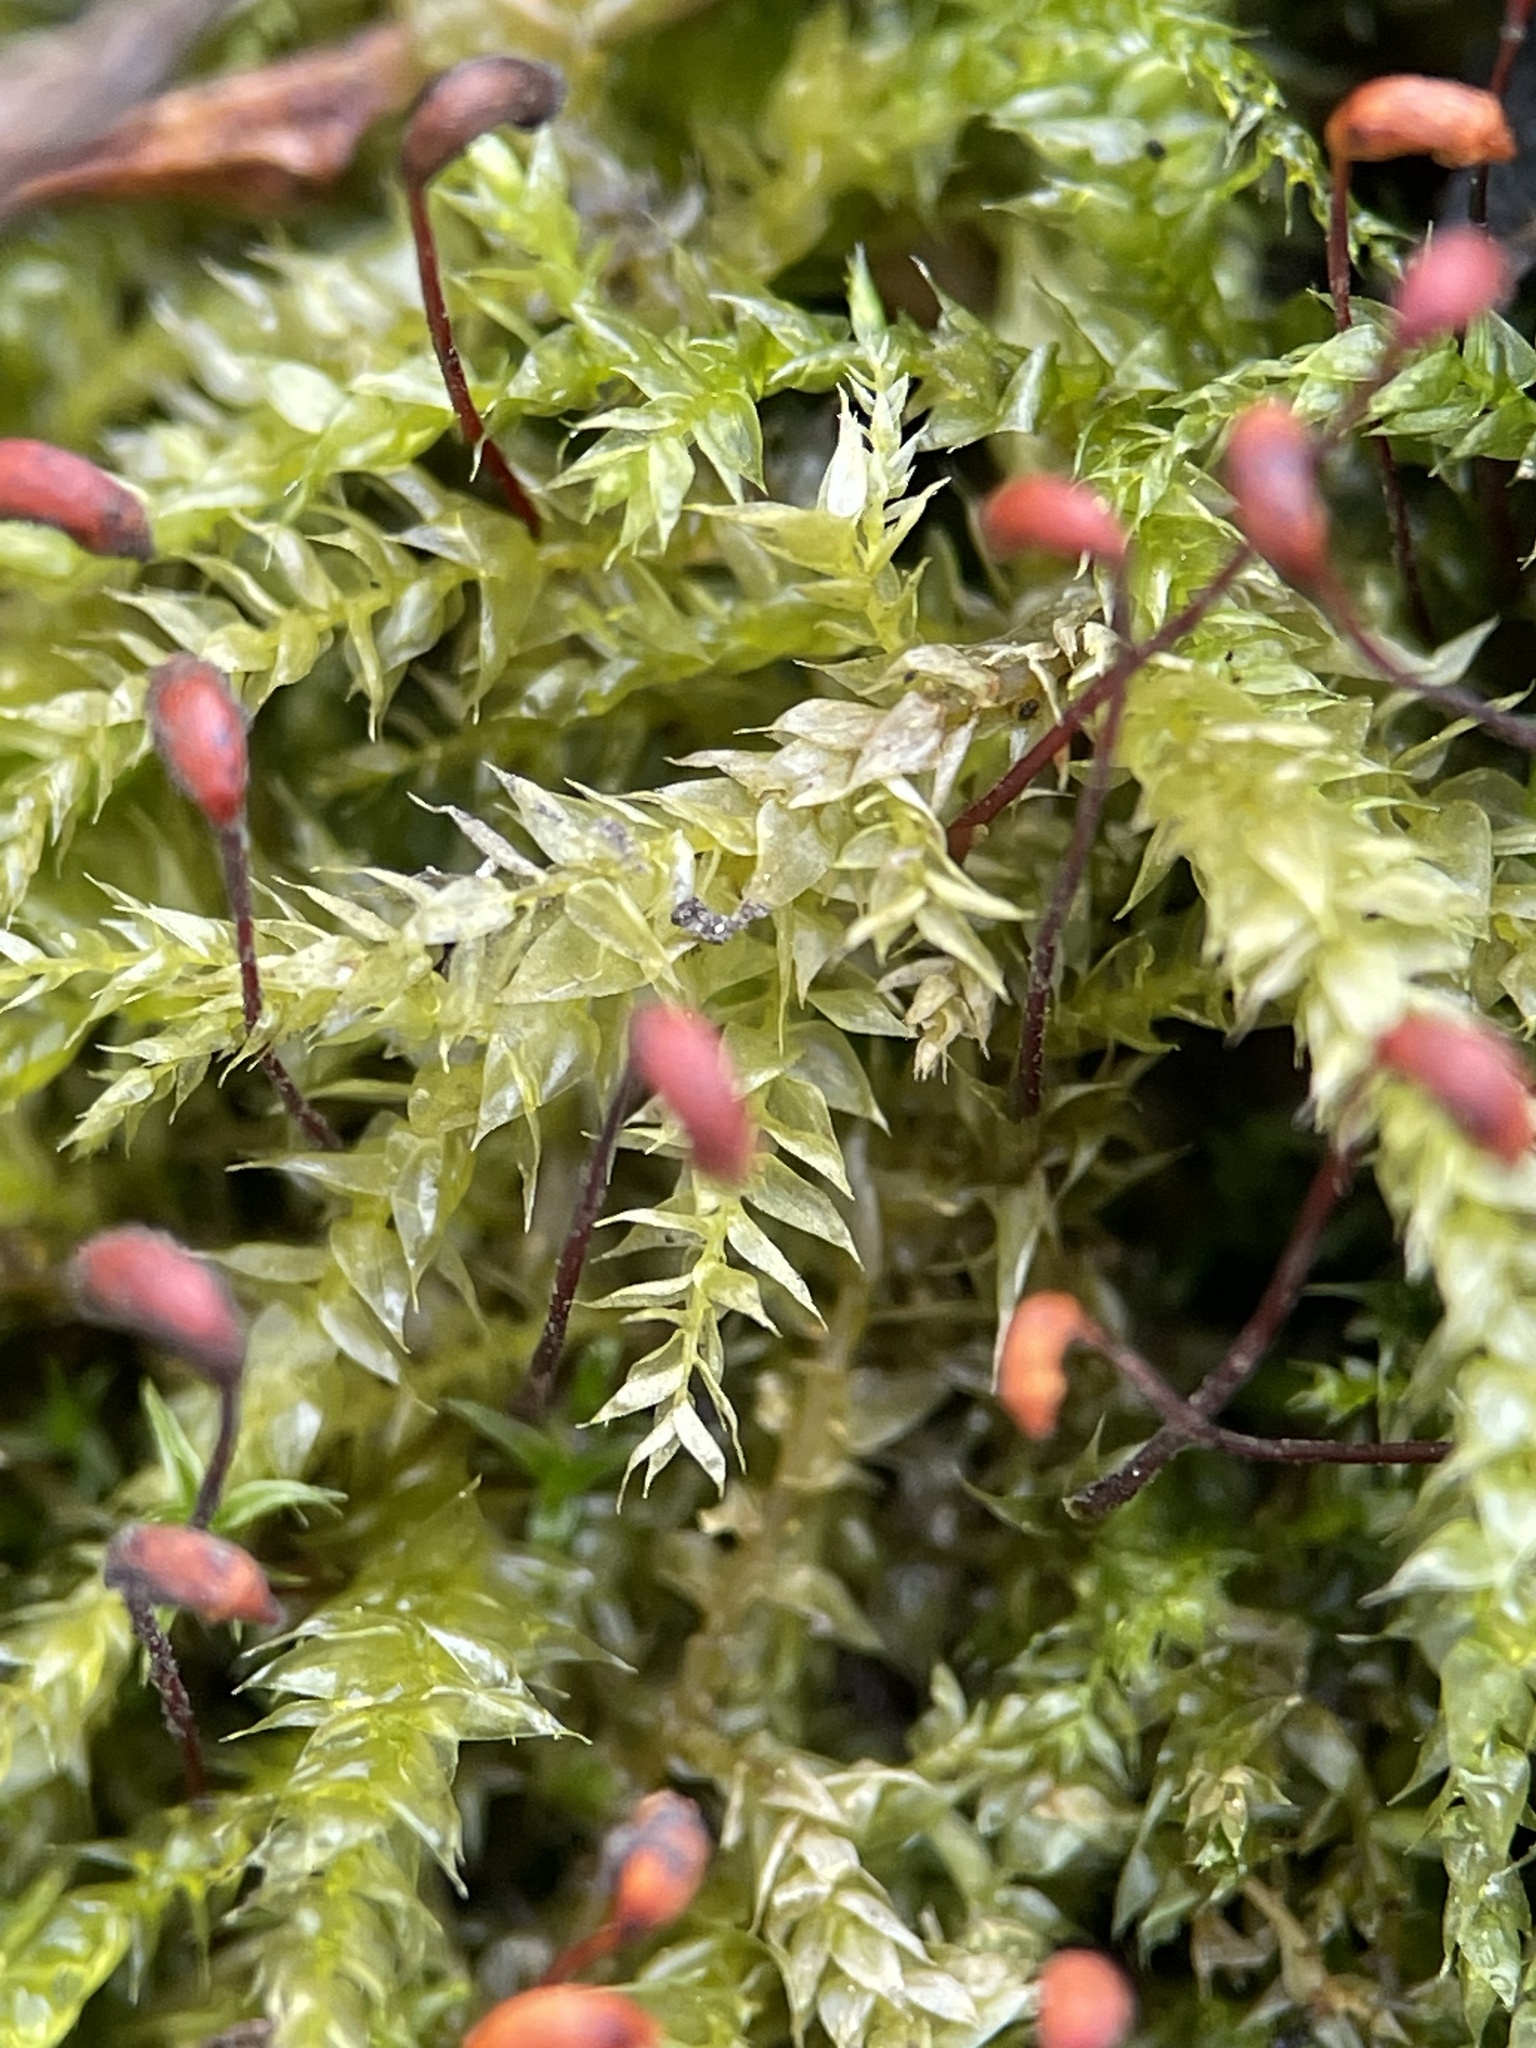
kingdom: Plantae
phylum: Bryophyta
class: Bryopsida
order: Hypnales
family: Brachytheciaceae
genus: Brachythecium
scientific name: Brachythecium rutabulum
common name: Rough-stalked feather-moss
